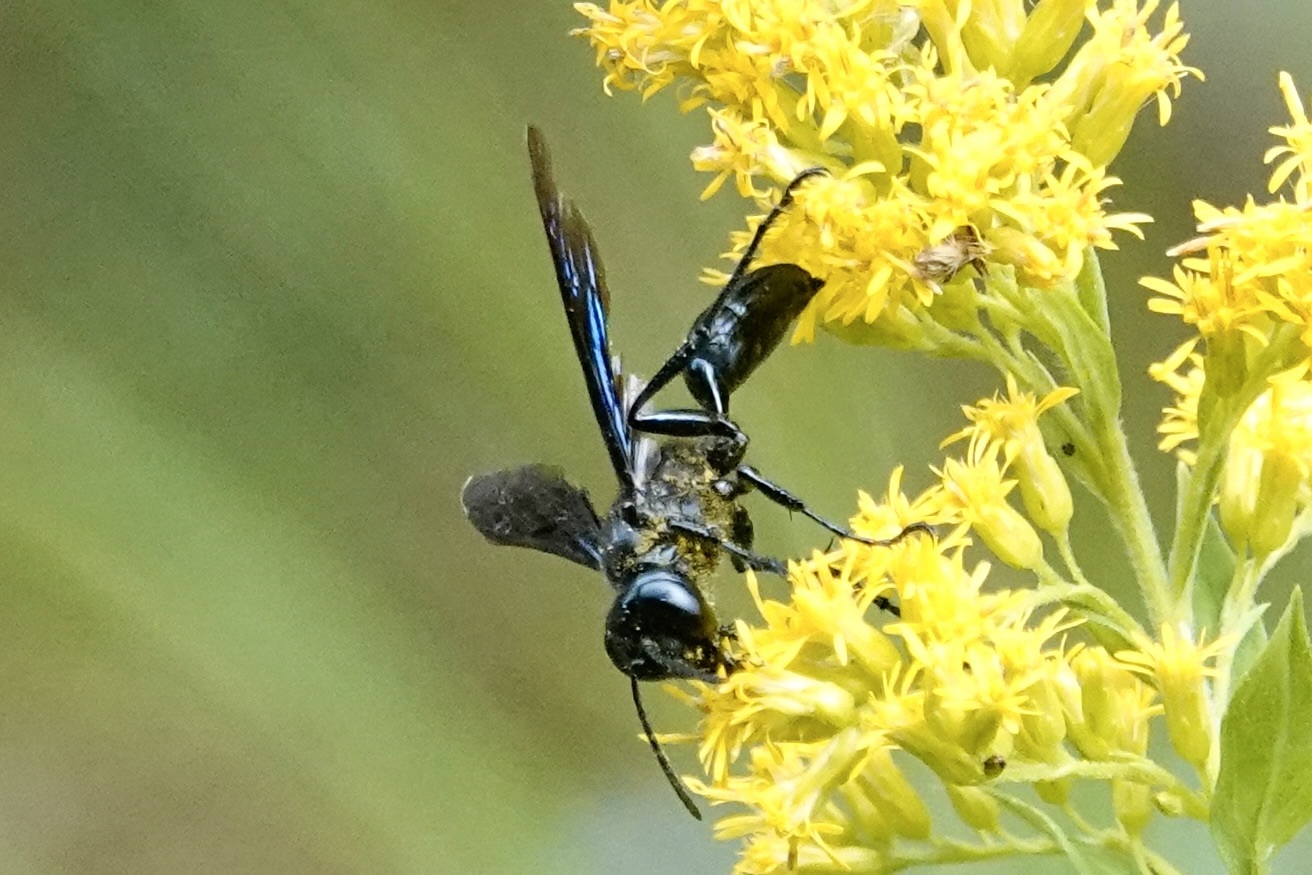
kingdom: Animalia
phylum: Arthropoda
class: Insecta
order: Hymenoptera
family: Sphecidae
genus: Isodontia
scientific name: Isodontia philadelphica
